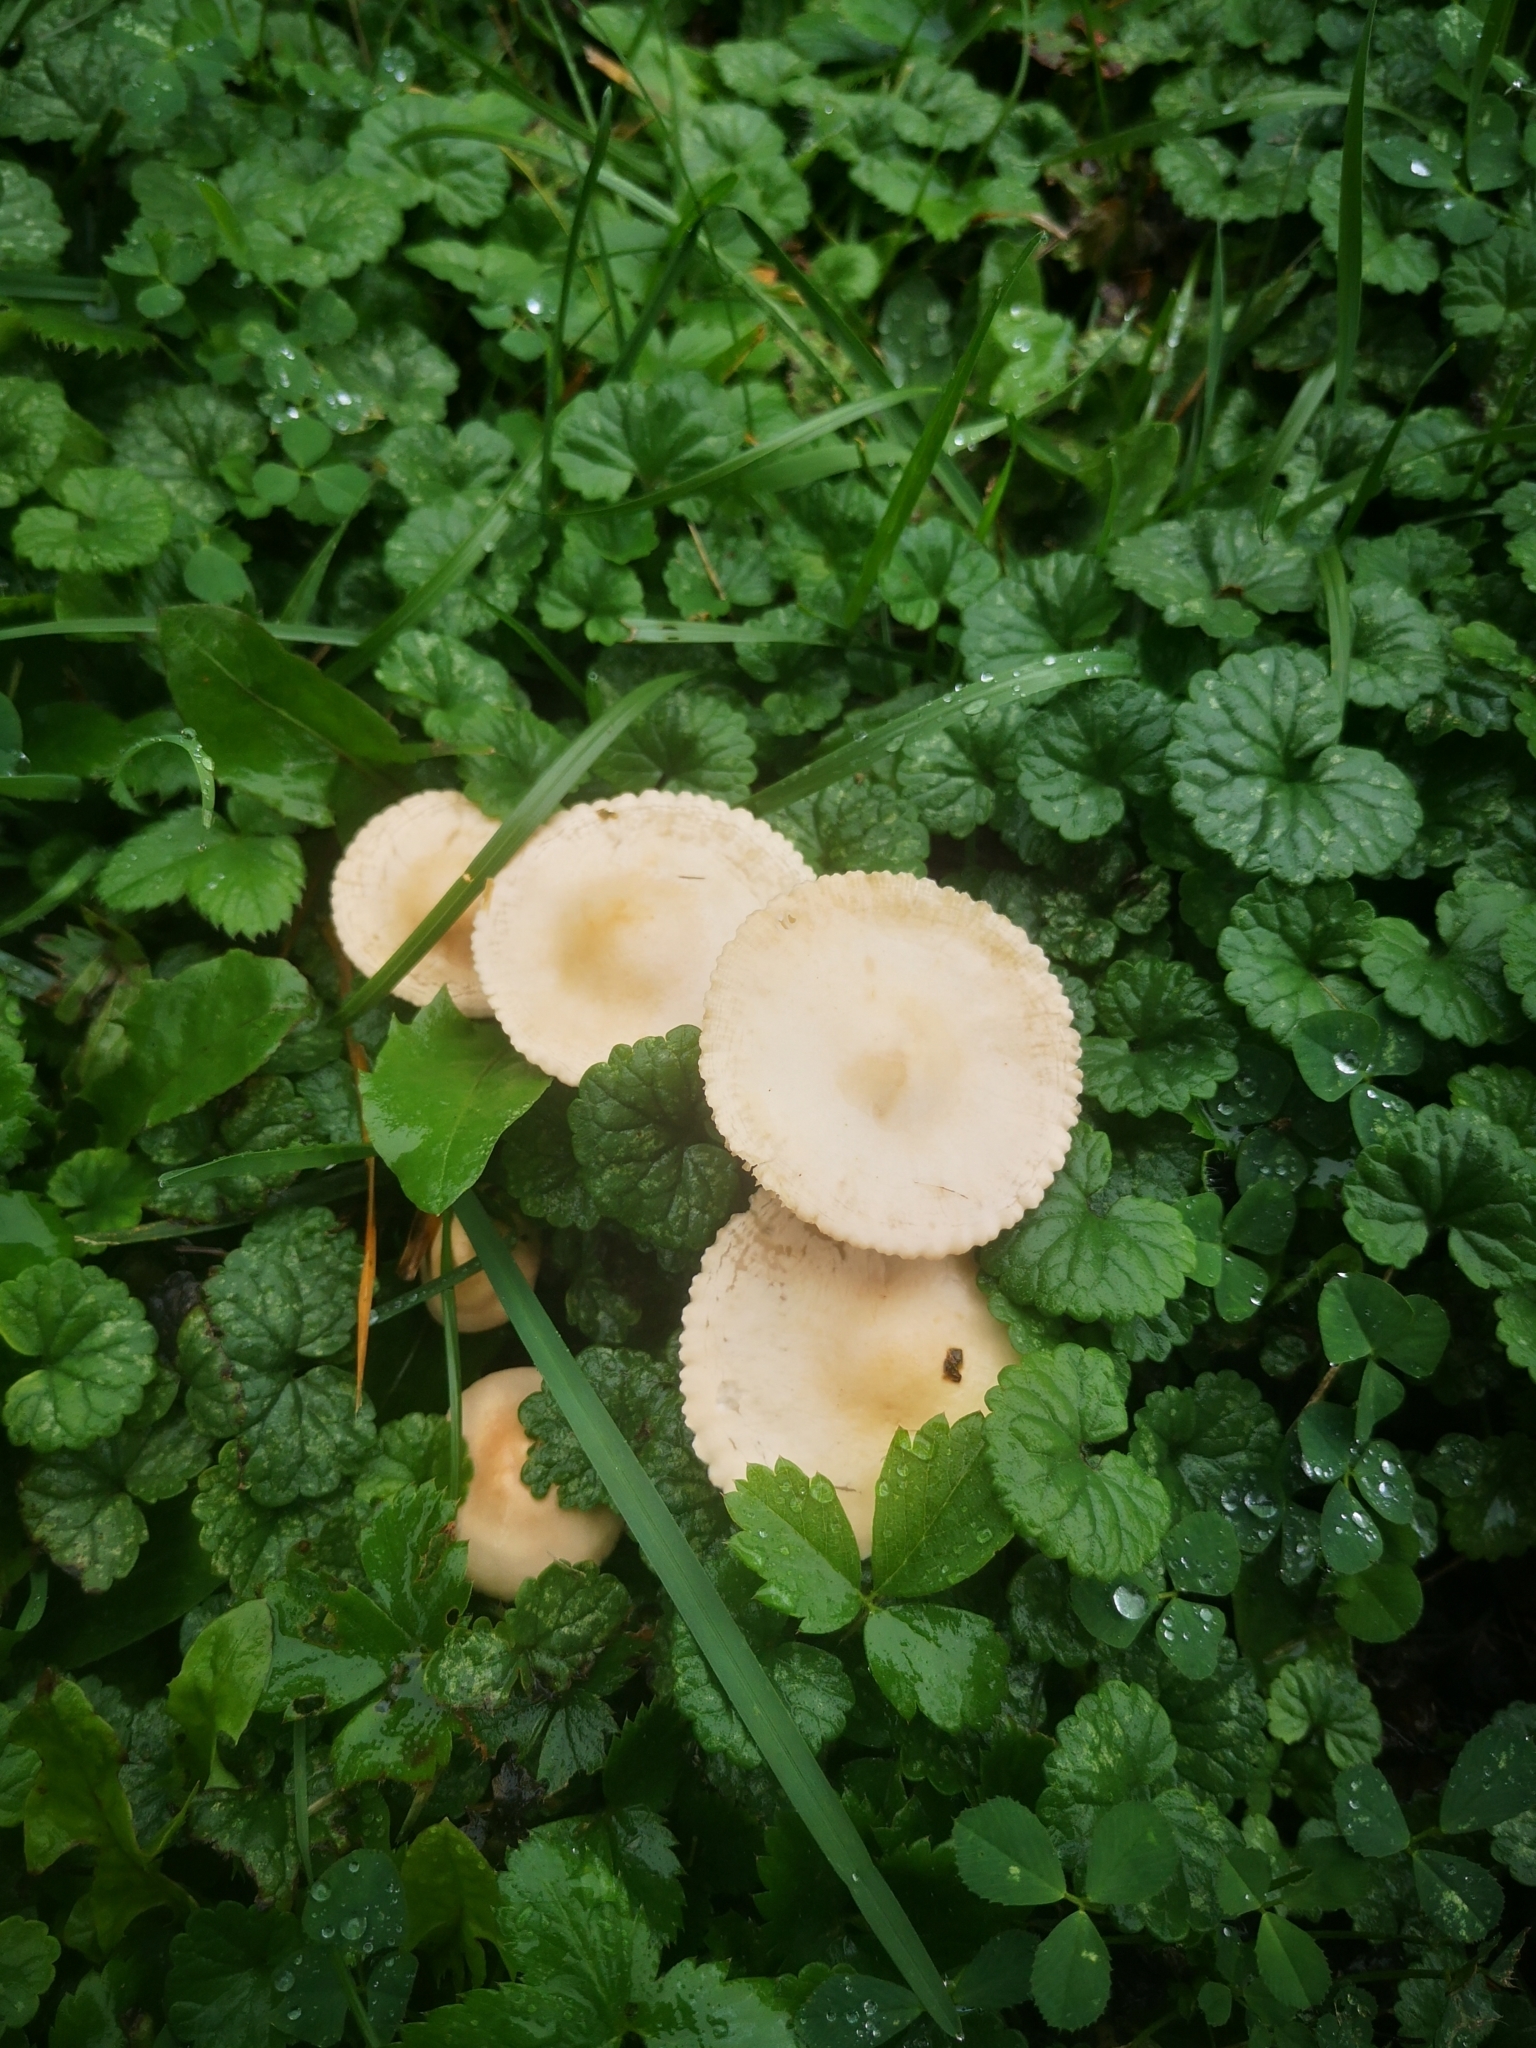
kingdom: Fungi
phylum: Basidiomycota
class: Agaricomycetes
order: Agaricales
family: Marasmiaceae
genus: Marasmius
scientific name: Marasmius oreades
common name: Fairy ring champignon
